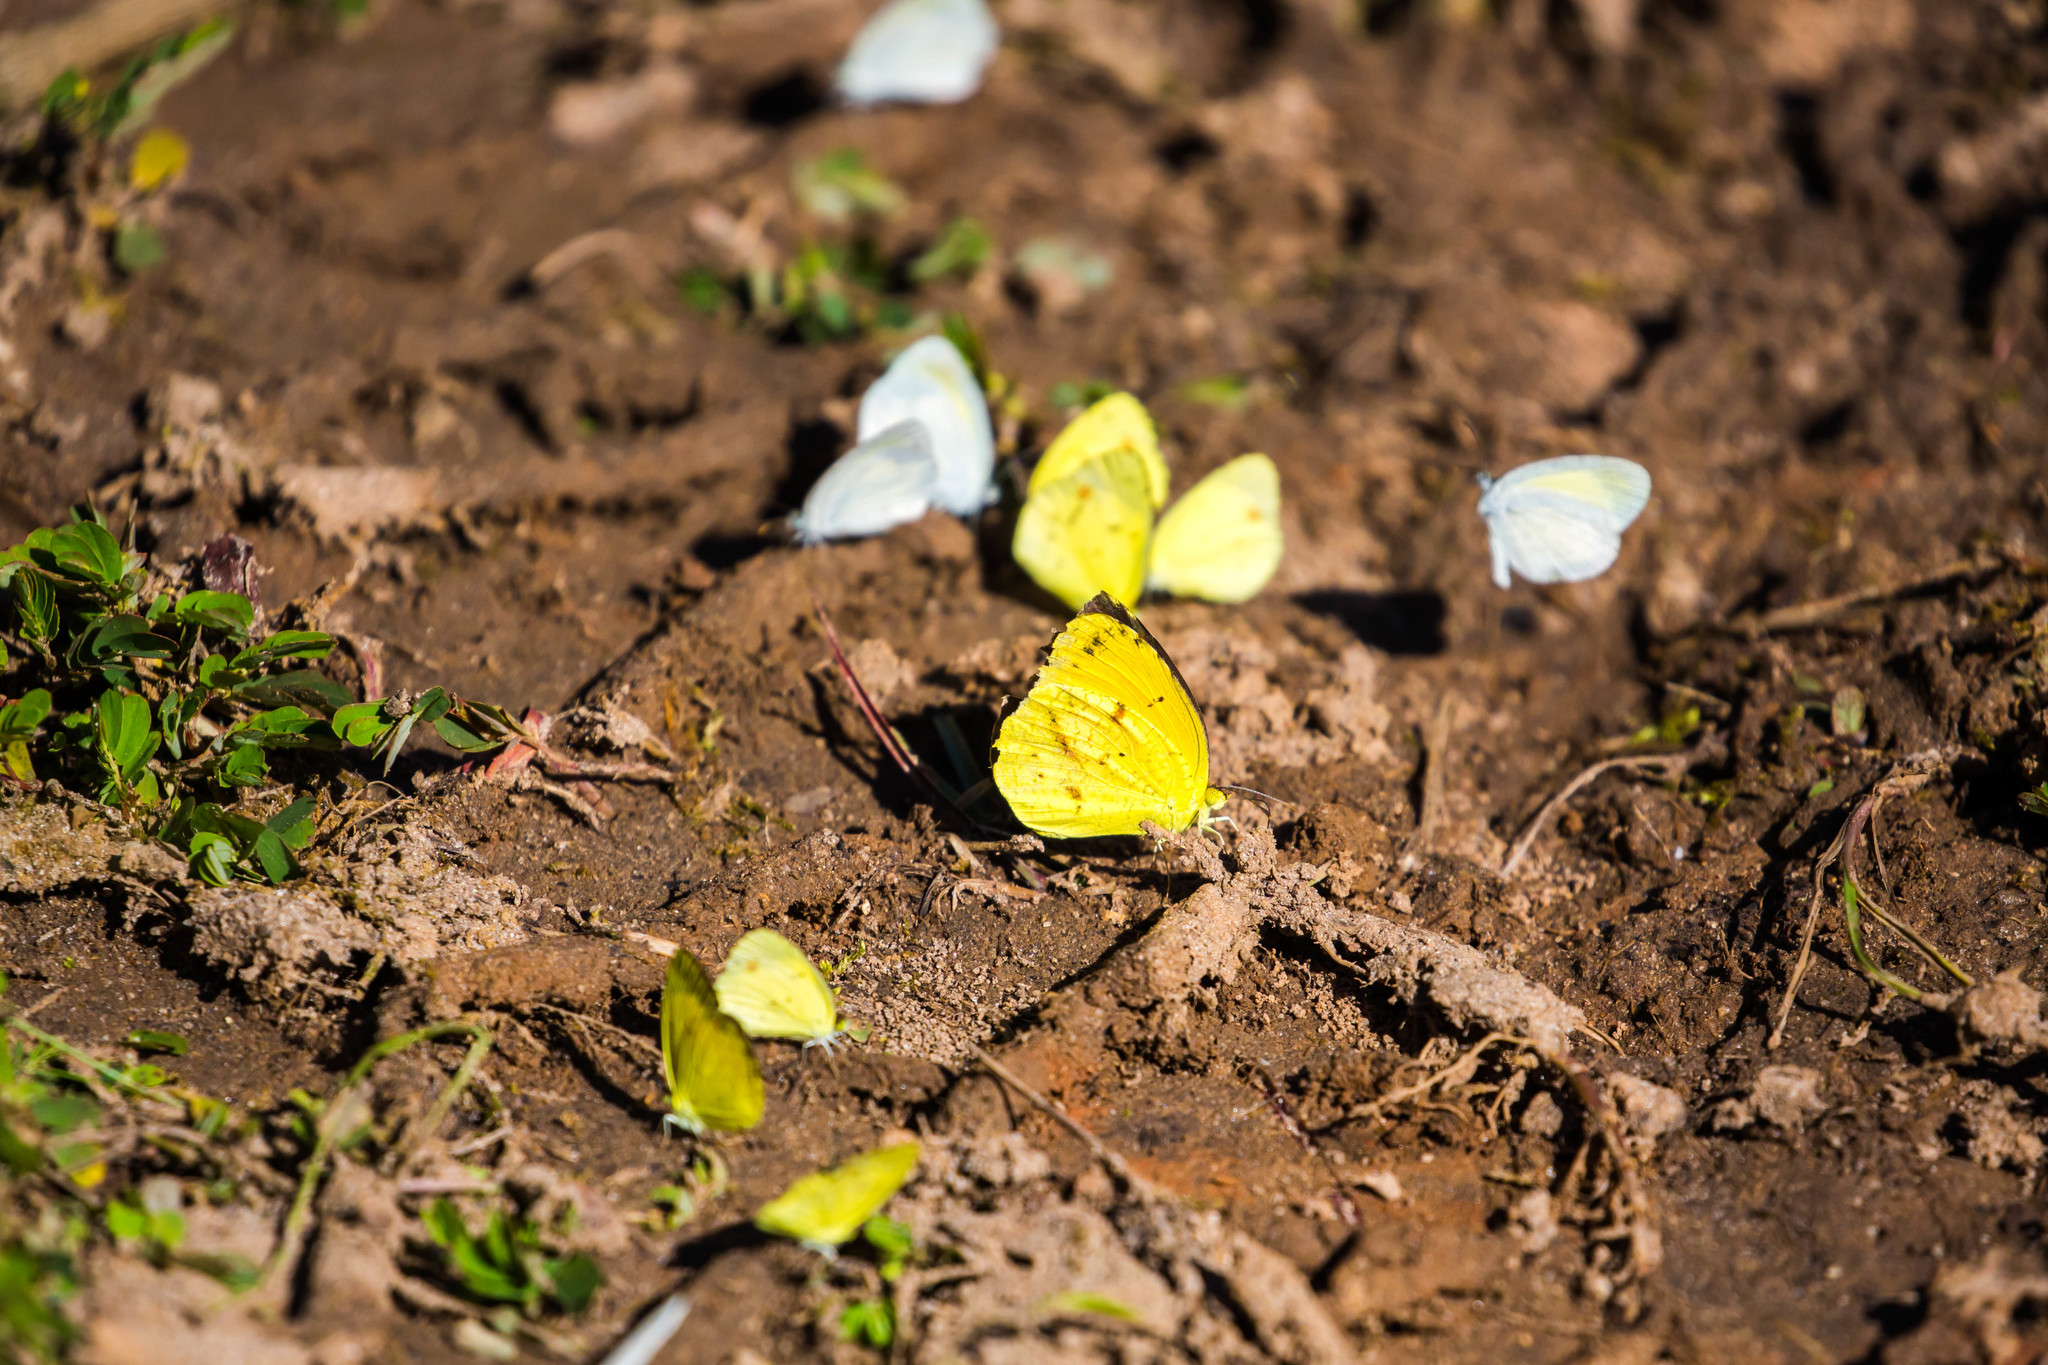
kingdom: Animalia
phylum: Arthropoda
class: Insecta
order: Lepidoptera
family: Pieridae
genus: Abaeis
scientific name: Abaeis nicippe
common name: Sleepy orange
